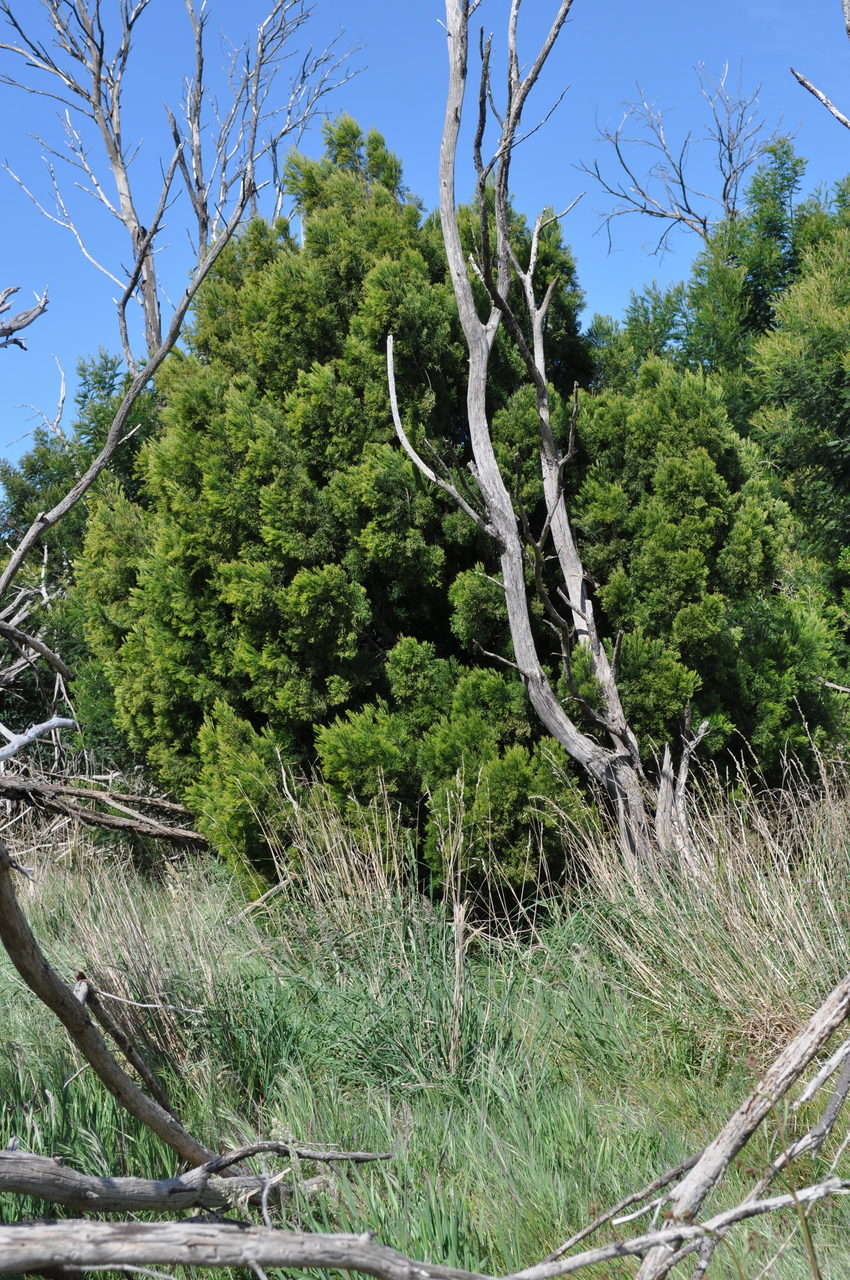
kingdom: Plantae
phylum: Tracheophyta
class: Magnoliopsida
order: Santalales
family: Santalaceae
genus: Exocarpos
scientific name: Exocarpos cupressiformis
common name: Cherry ballart
